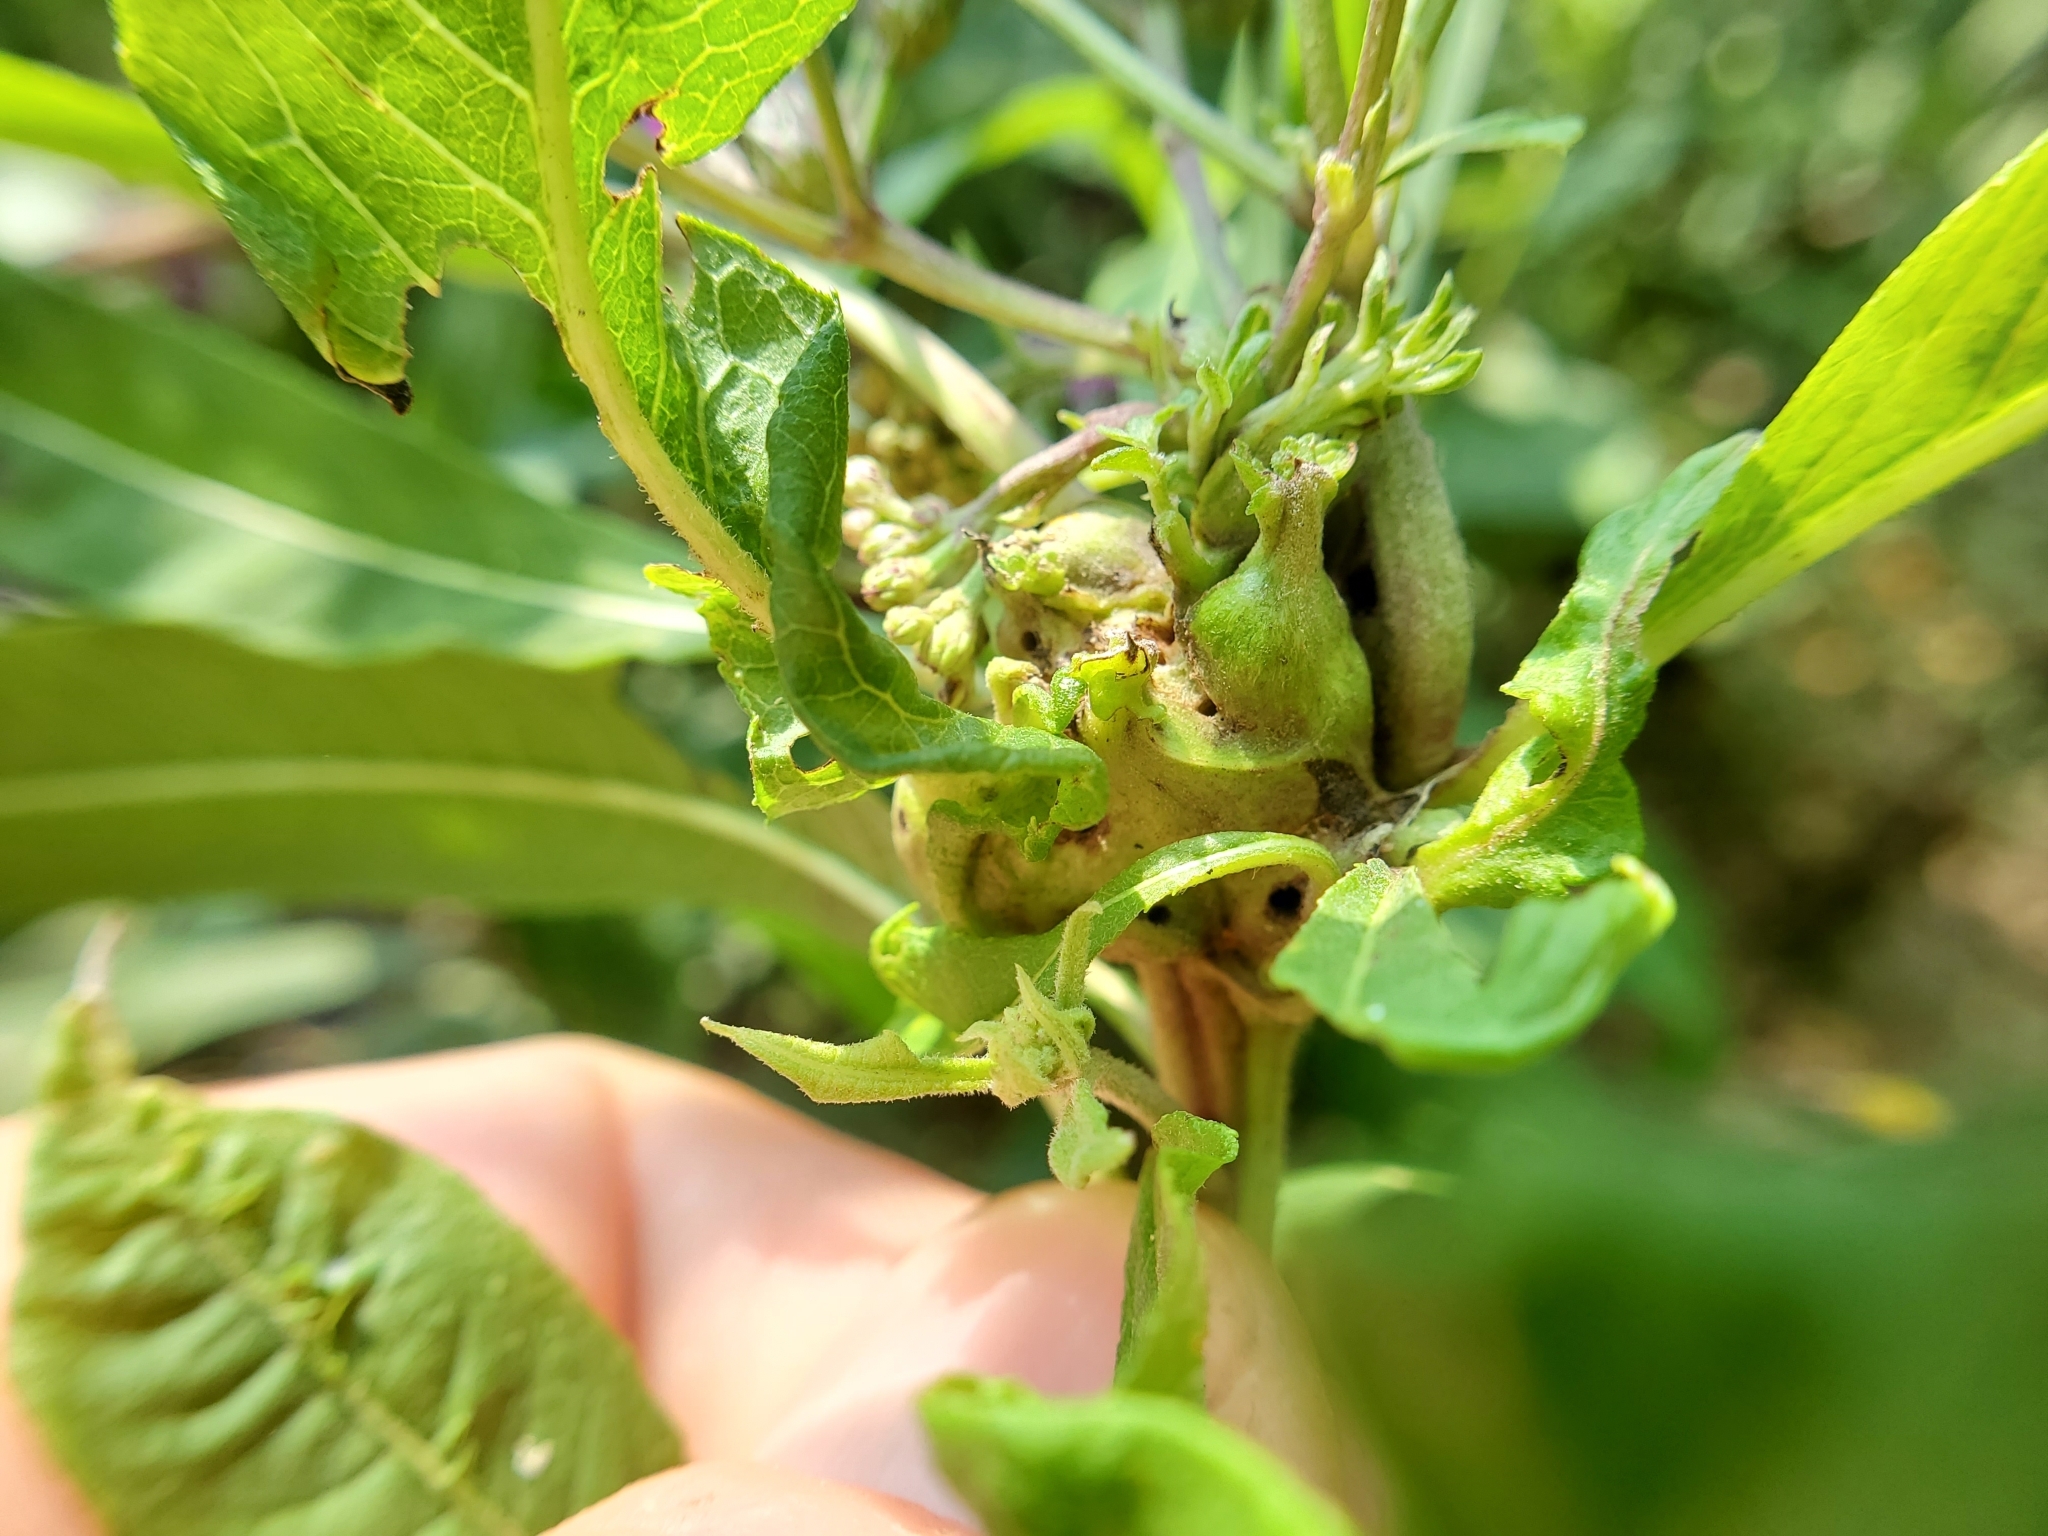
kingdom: Animalia
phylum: Arthropoda
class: Insecta
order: Diptera
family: Cecidomyiidae
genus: Neolasioptera
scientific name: Neolasioptera vernoniae
